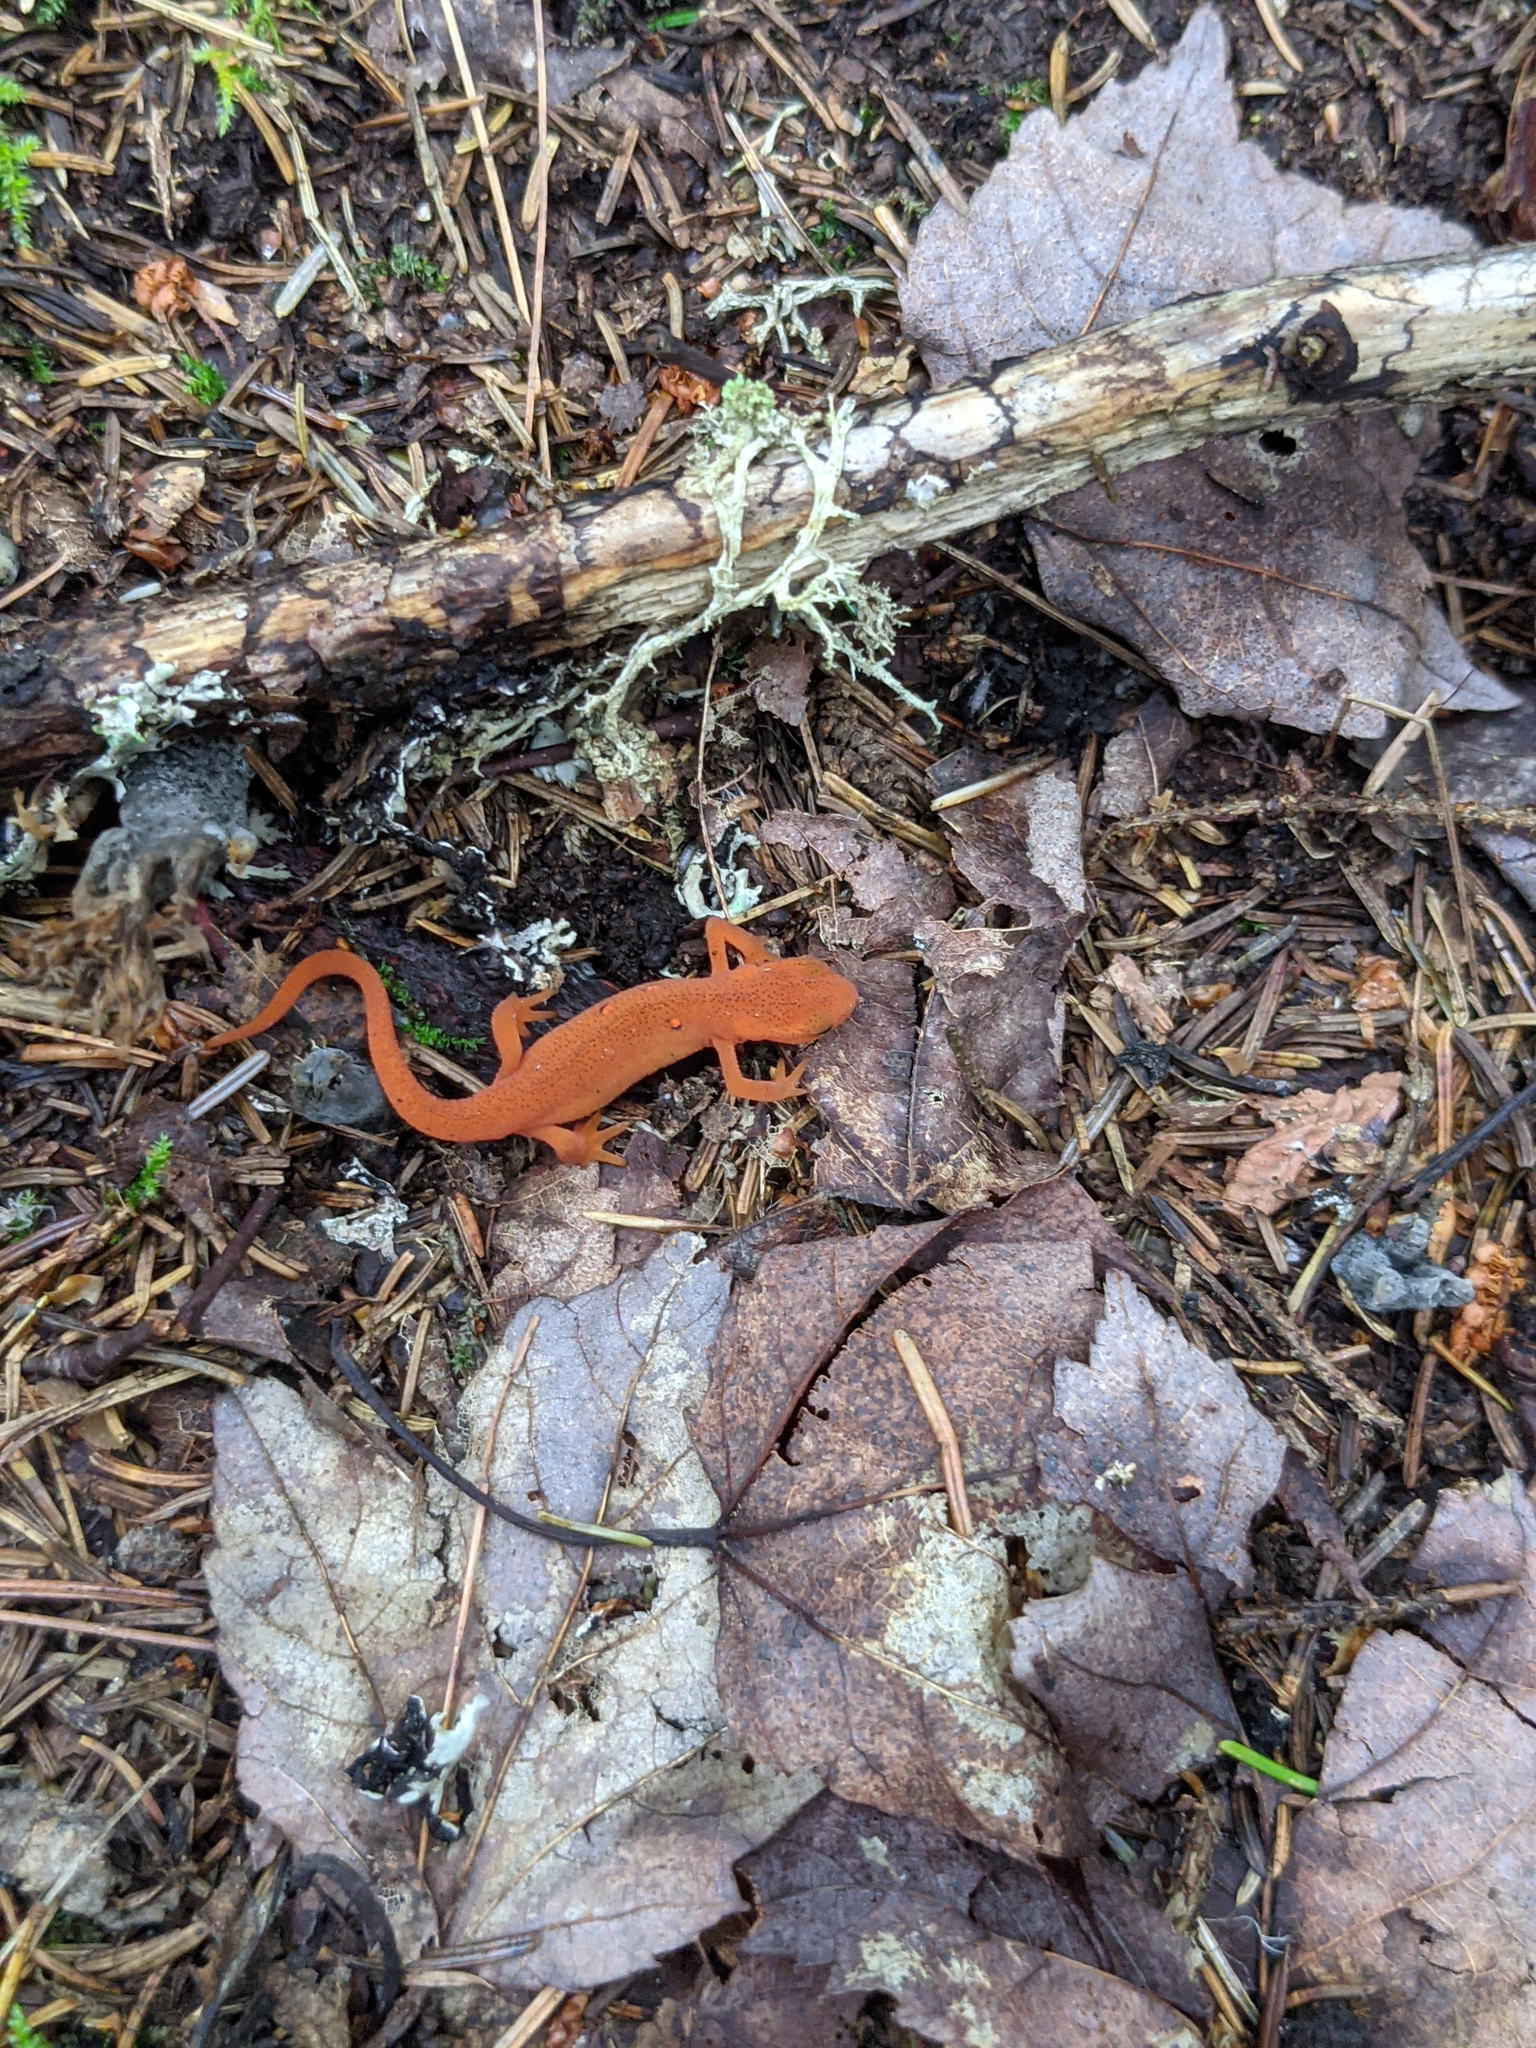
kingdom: Animalia
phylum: Chordata
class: Amphibia
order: Caudata
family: Salamandridae
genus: Notophthalmus
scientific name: Notophthalmus viridescens
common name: Eastern newt
